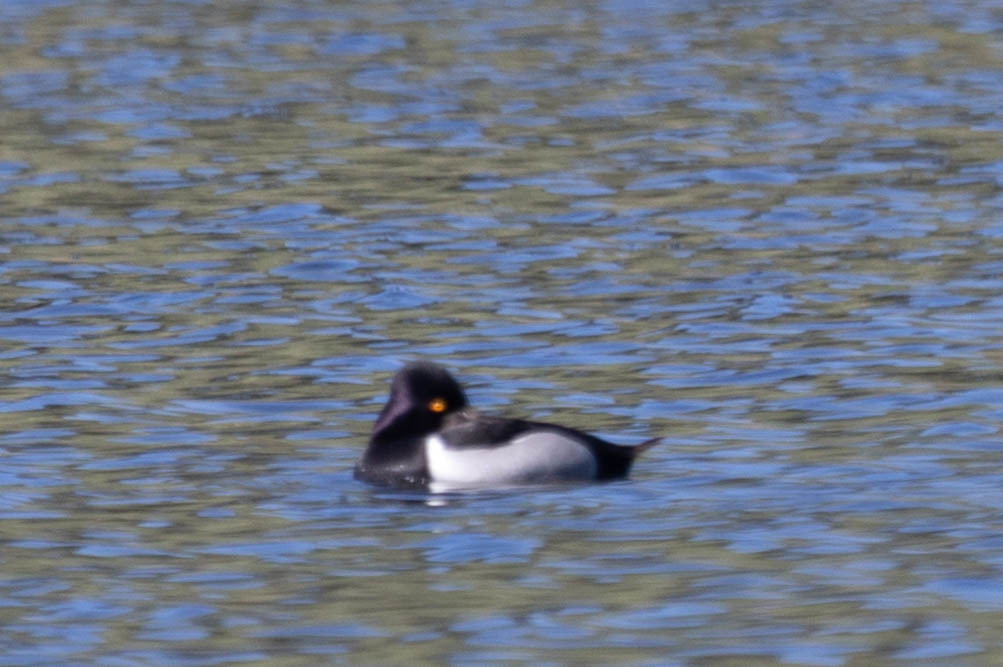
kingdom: Animalia
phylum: Chordata
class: Aves
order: Anseriformes
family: Anatidae
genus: Aythya
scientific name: Aythya collaris
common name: Ring-necked duck
